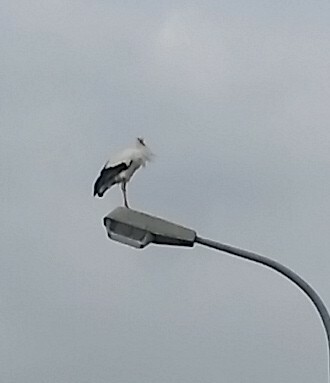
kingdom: Animalia
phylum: Chordata
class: Aves
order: Ciconiiformes
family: Ciconiidae
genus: Ciconia
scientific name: Ciconia ciconia
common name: White stork
